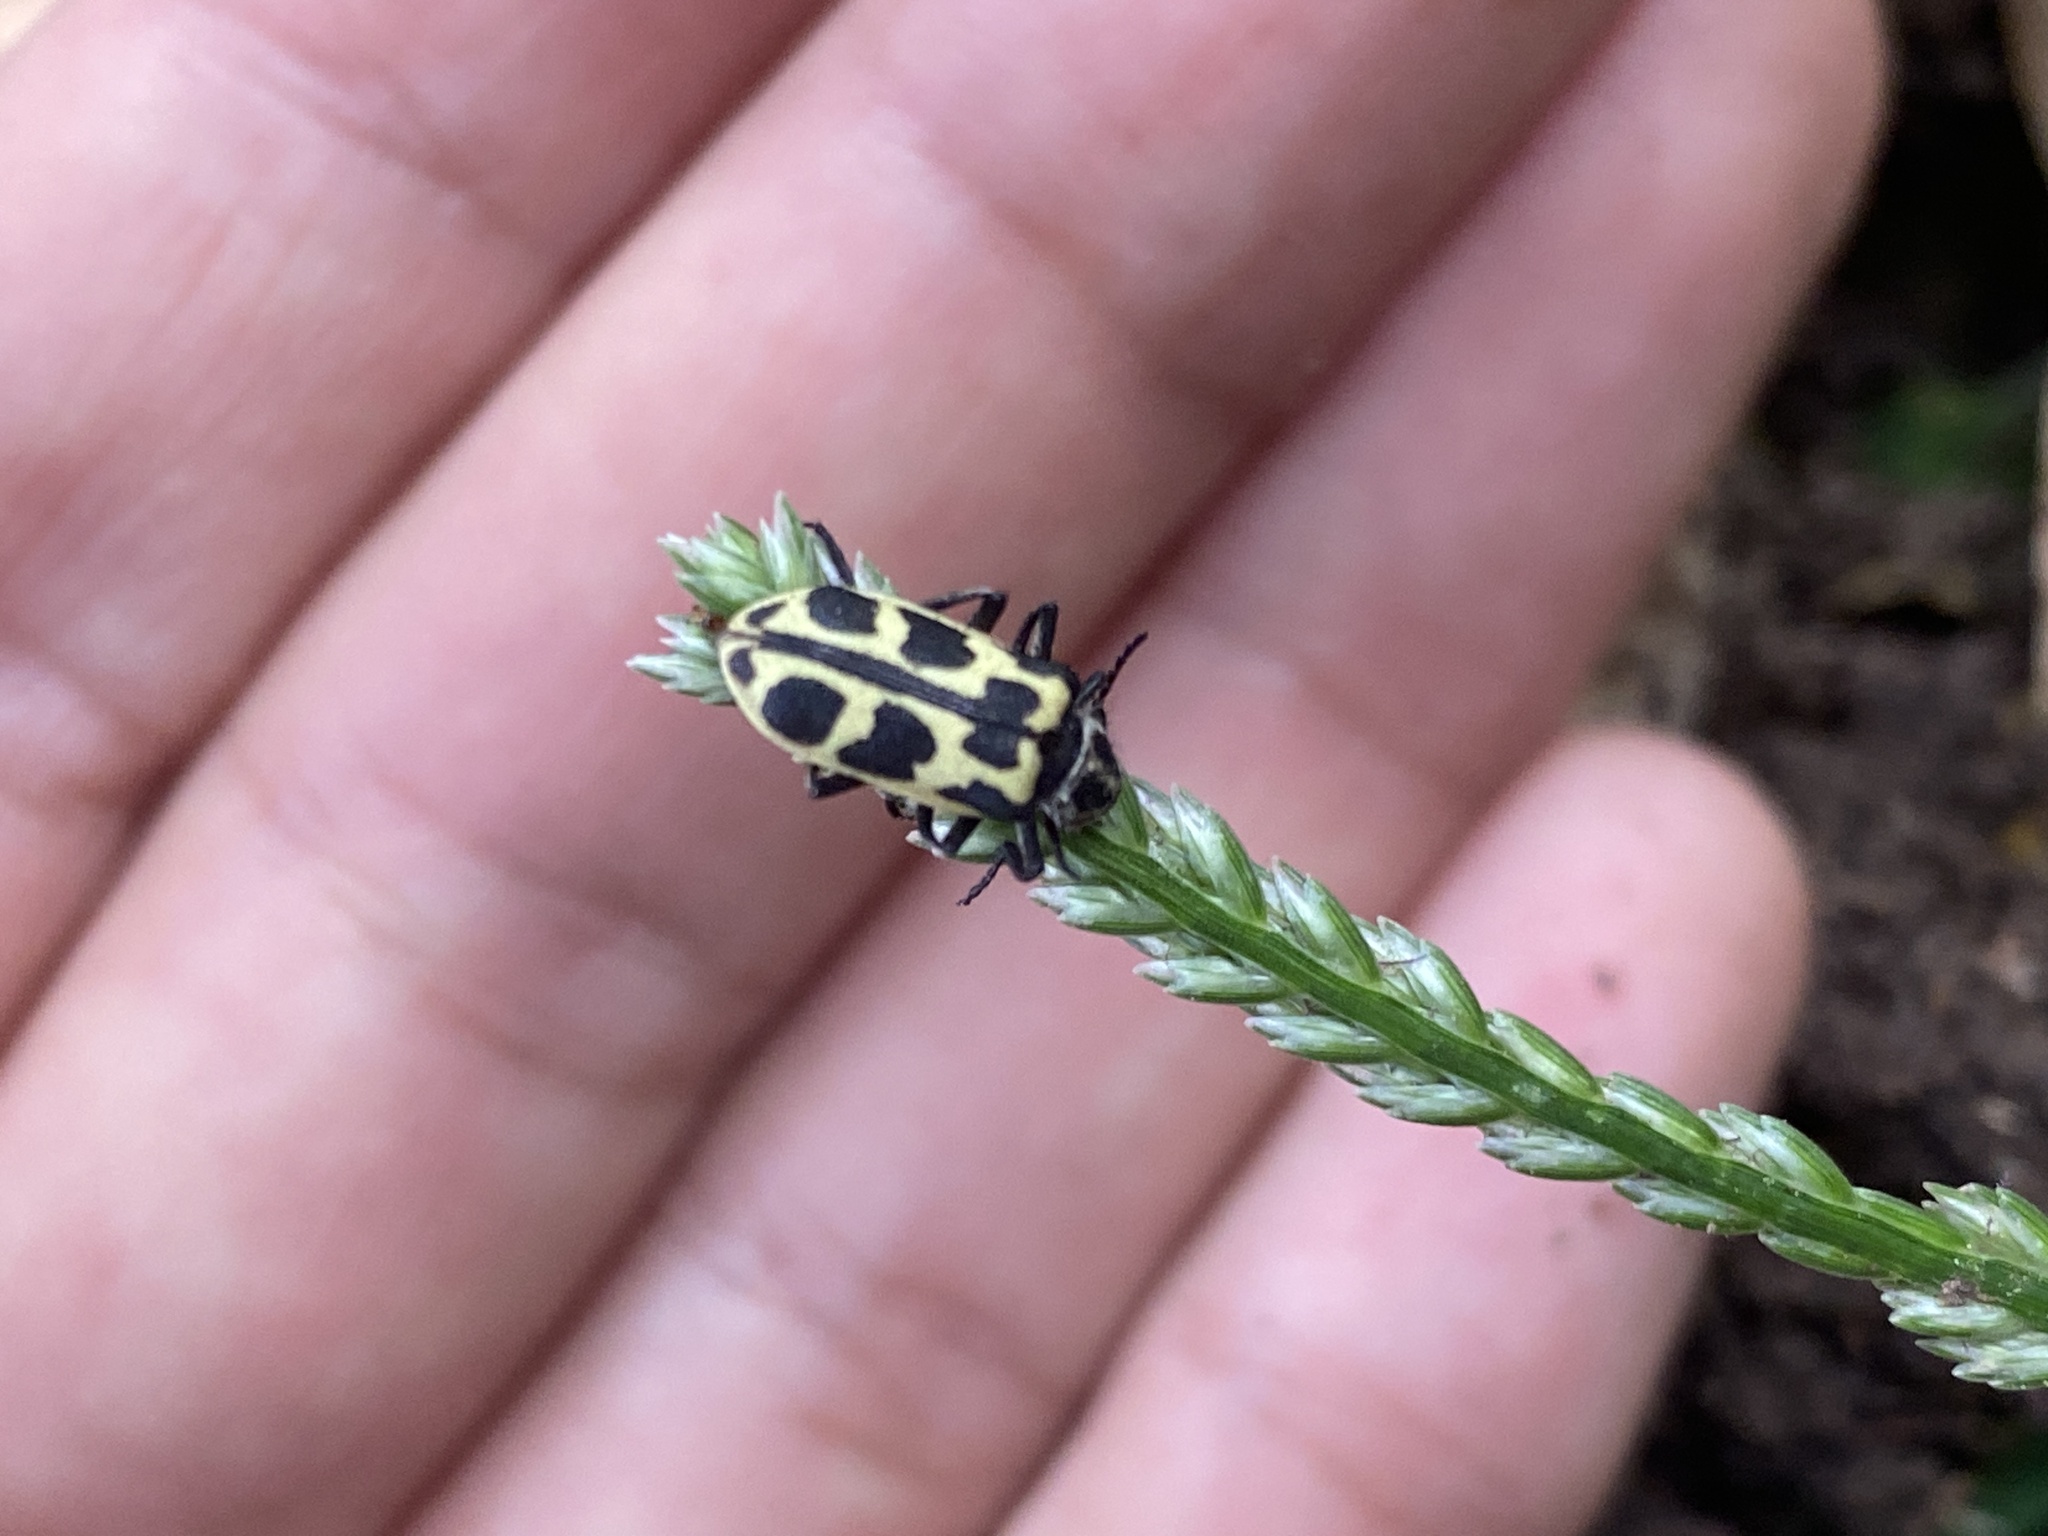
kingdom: Animalia
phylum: Arthropoda
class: Insecta
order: Coleoptera
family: Melyridae
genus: Astylus
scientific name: Astylus atromaculatus
